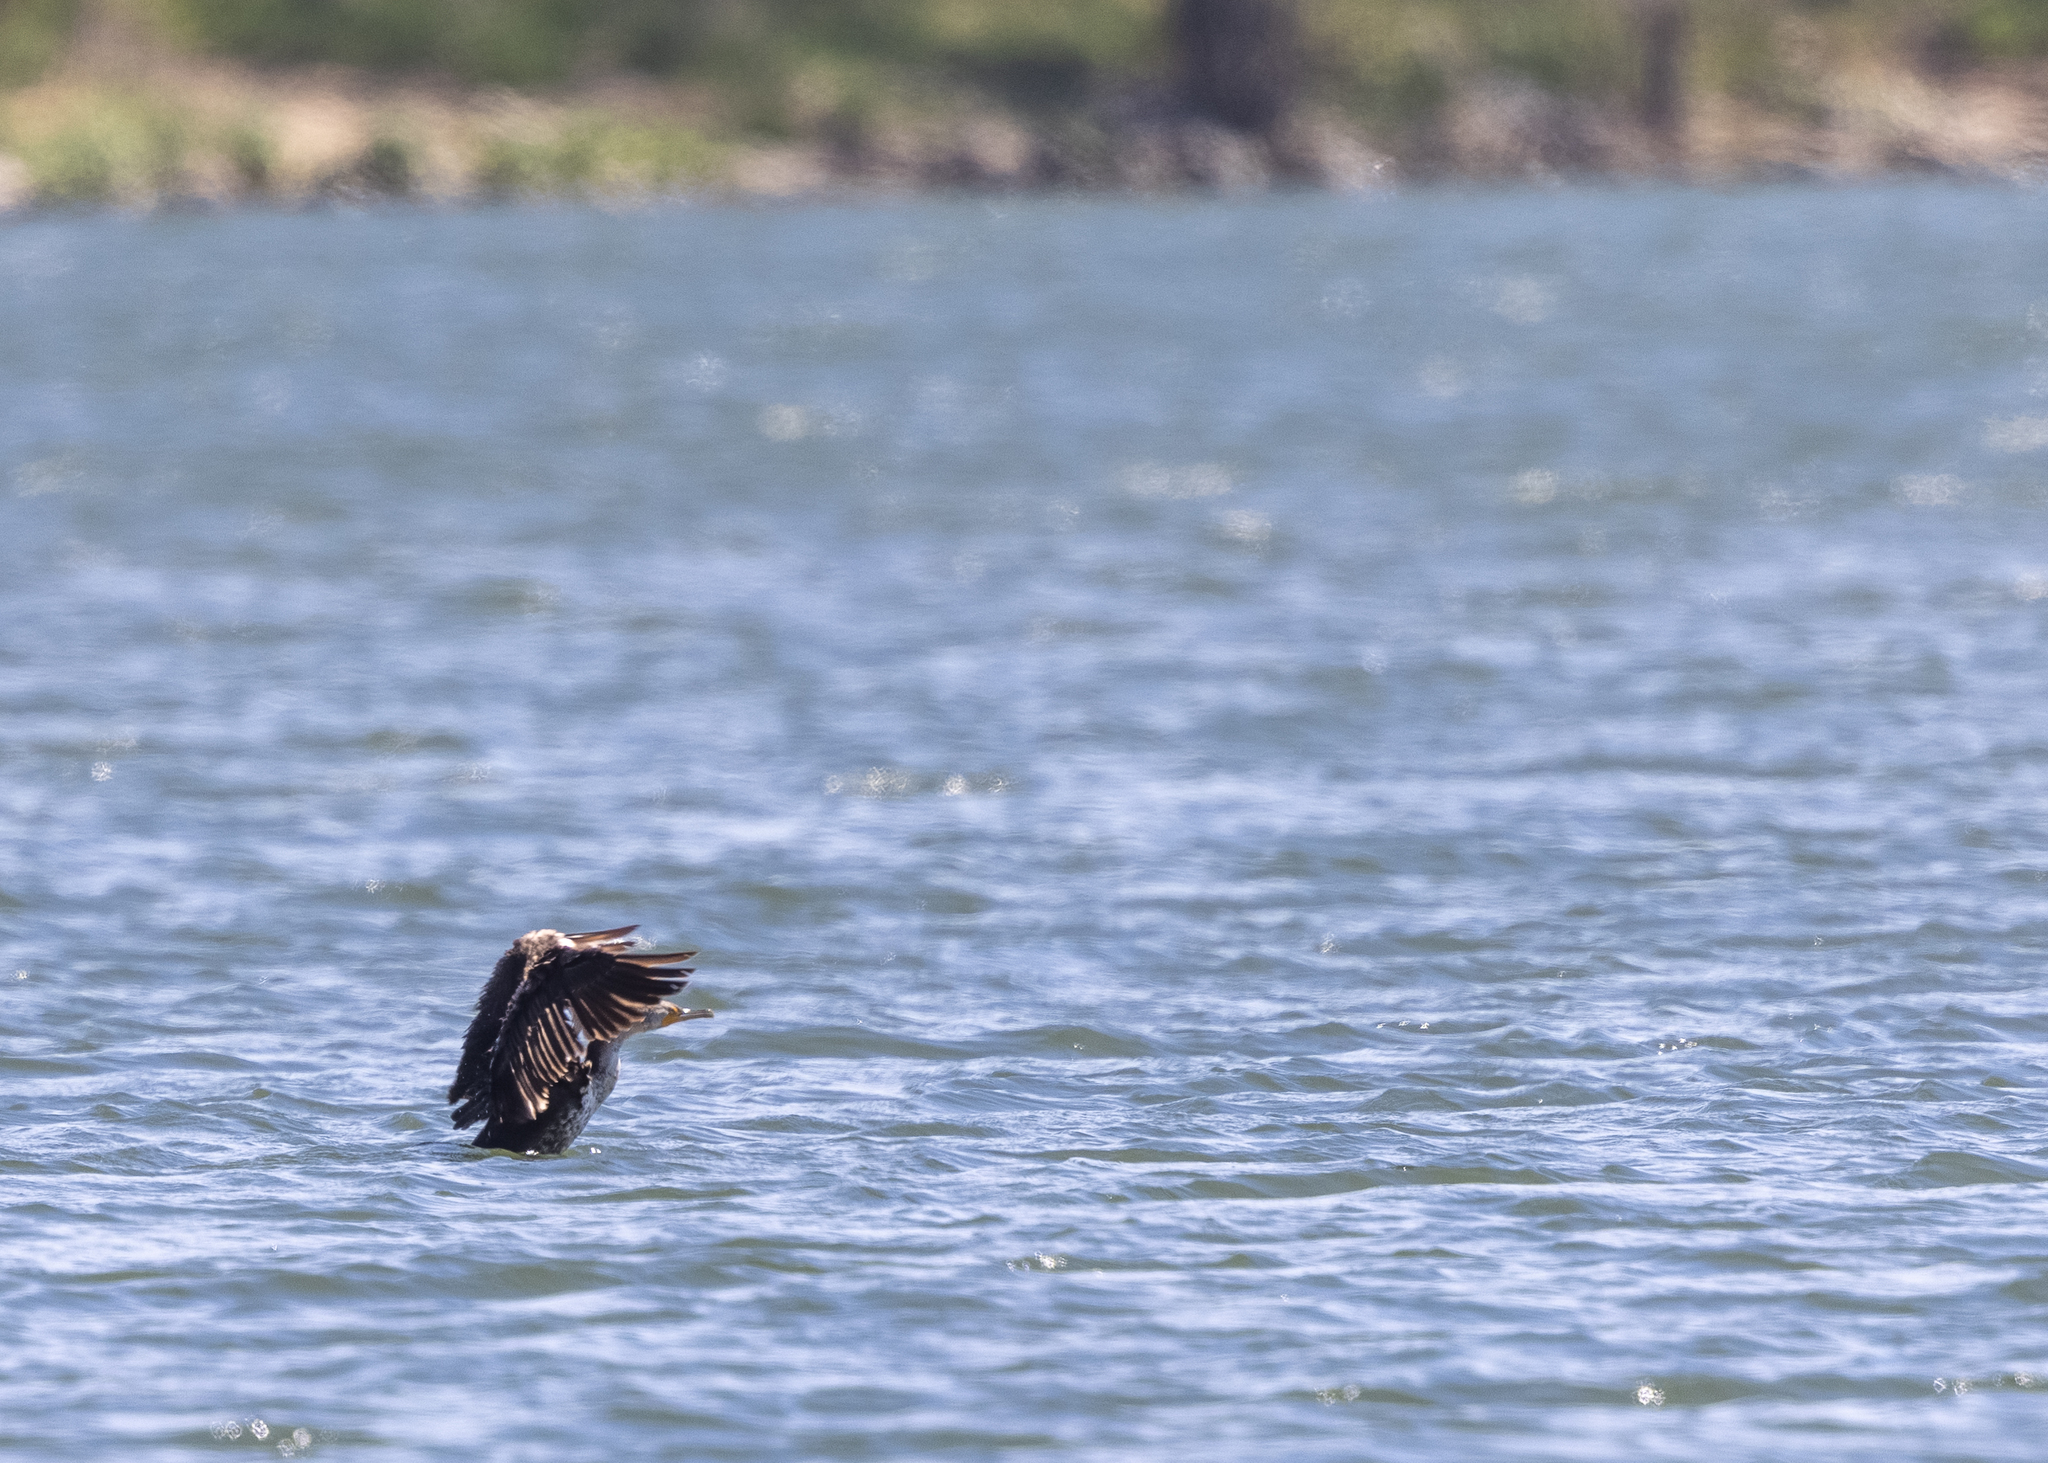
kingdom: Animalia
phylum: Chordata
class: Aves
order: Suliformes
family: Phalacrocoracidae
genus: Phalacrocorax
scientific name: Phalacrocorax auritus
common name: Double-crested cormorant
